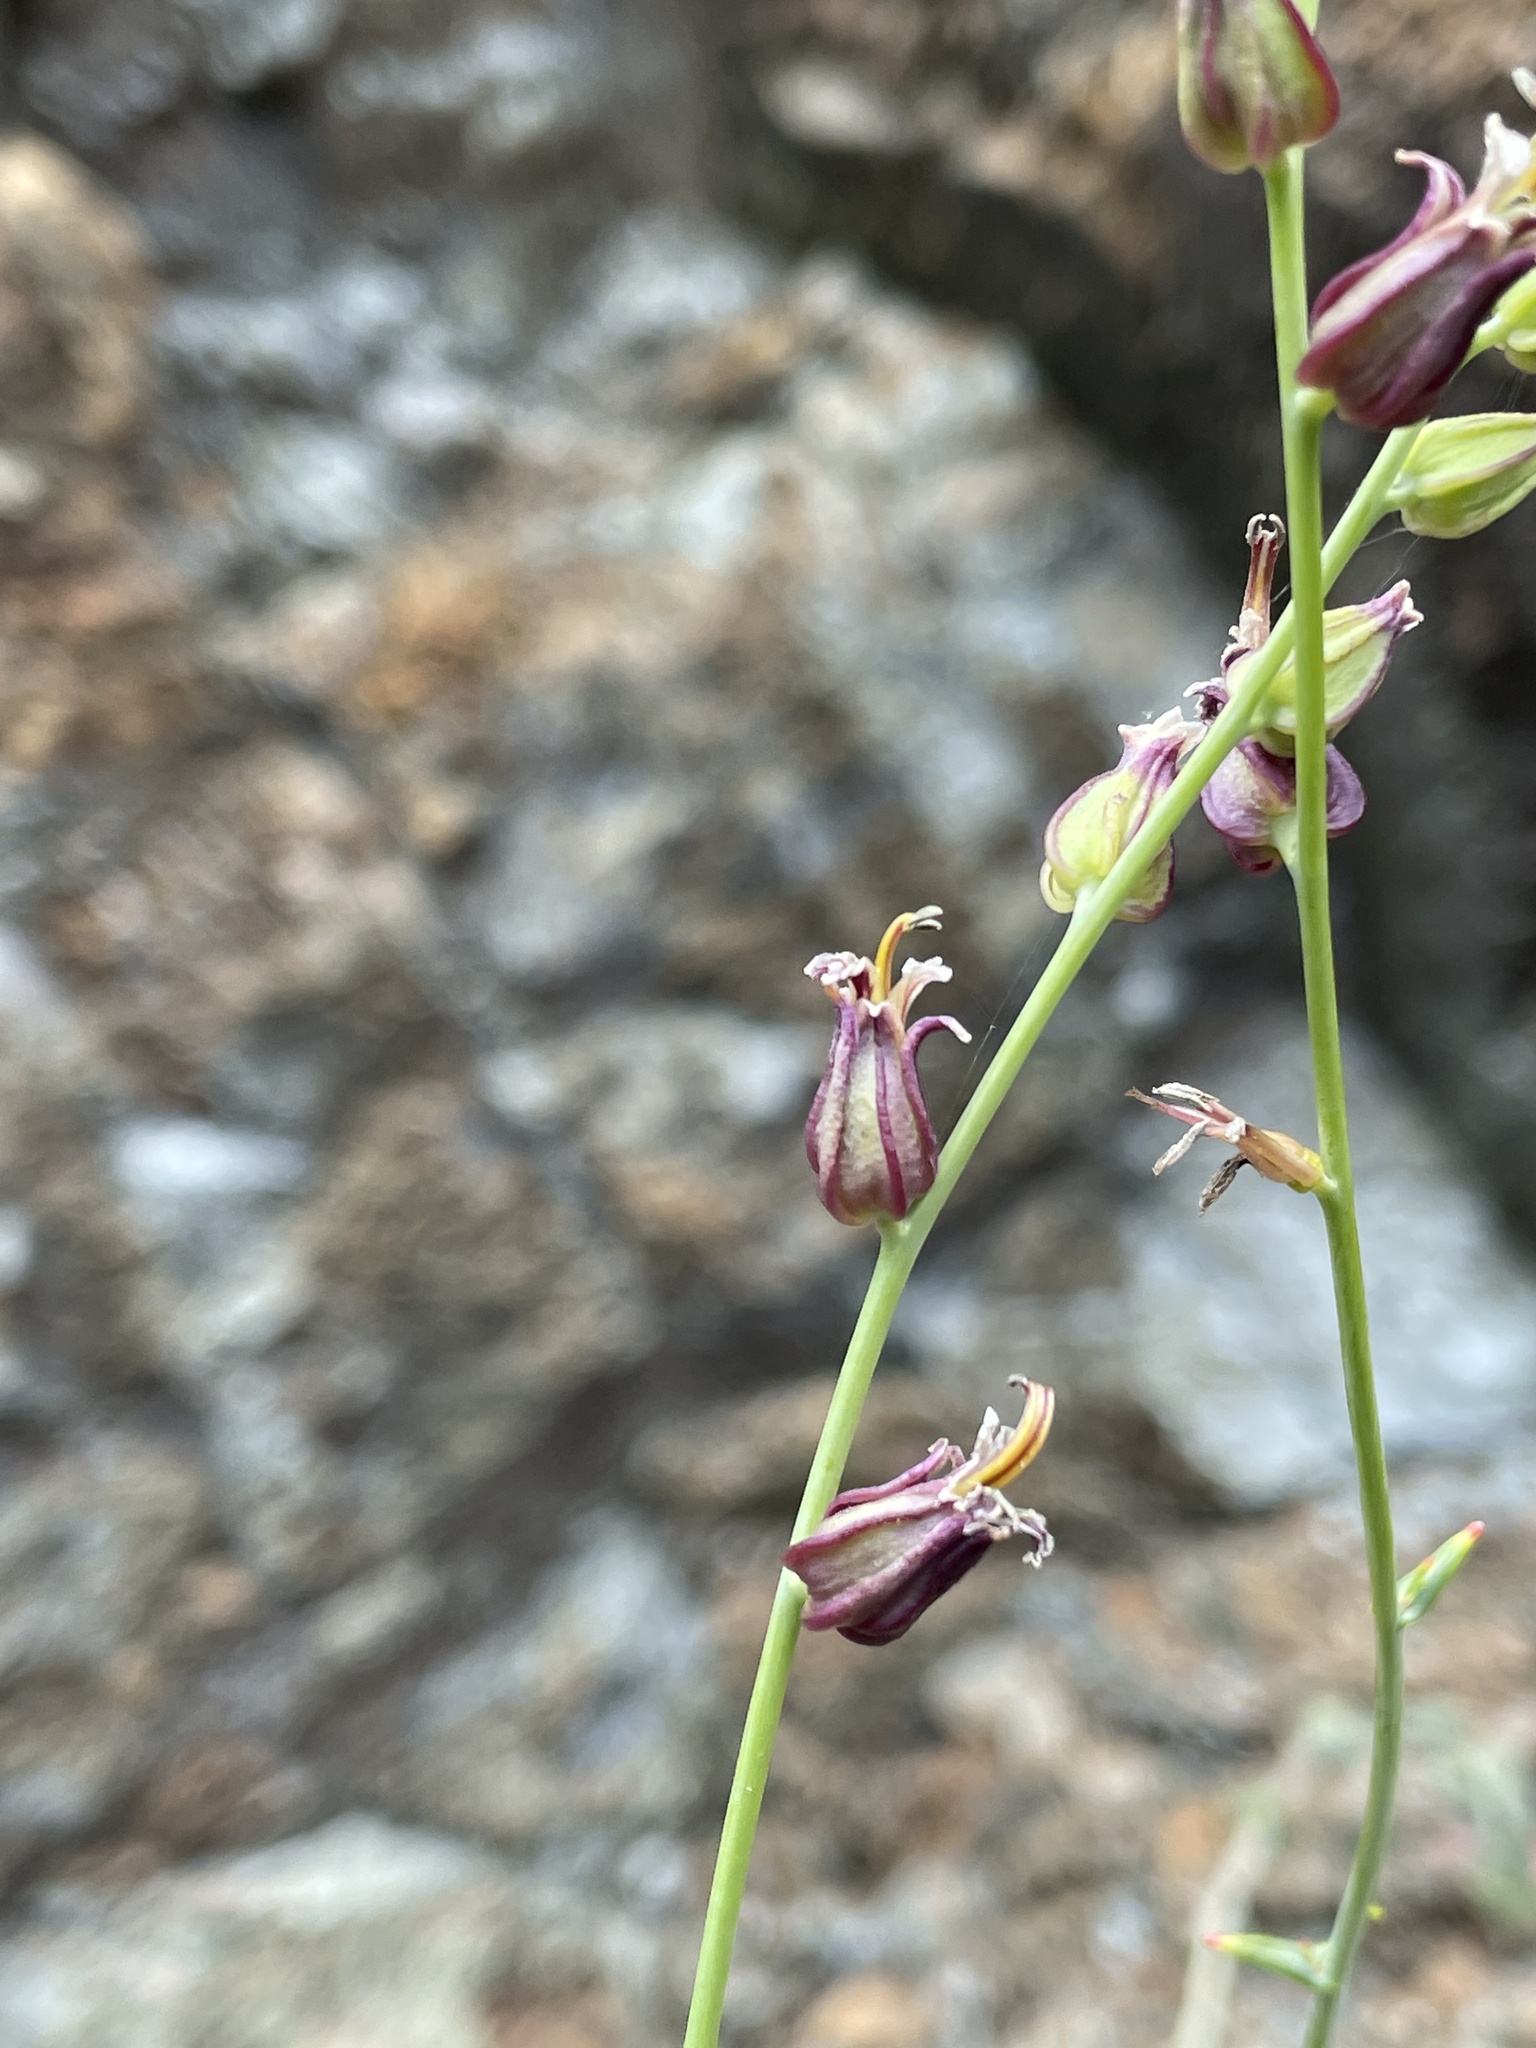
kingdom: Plantae
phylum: Tracheophyta
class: Magnoliopsida
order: Brassicales
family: Brassicaceae
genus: Streptanthus
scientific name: Streptanthus morrisonii
